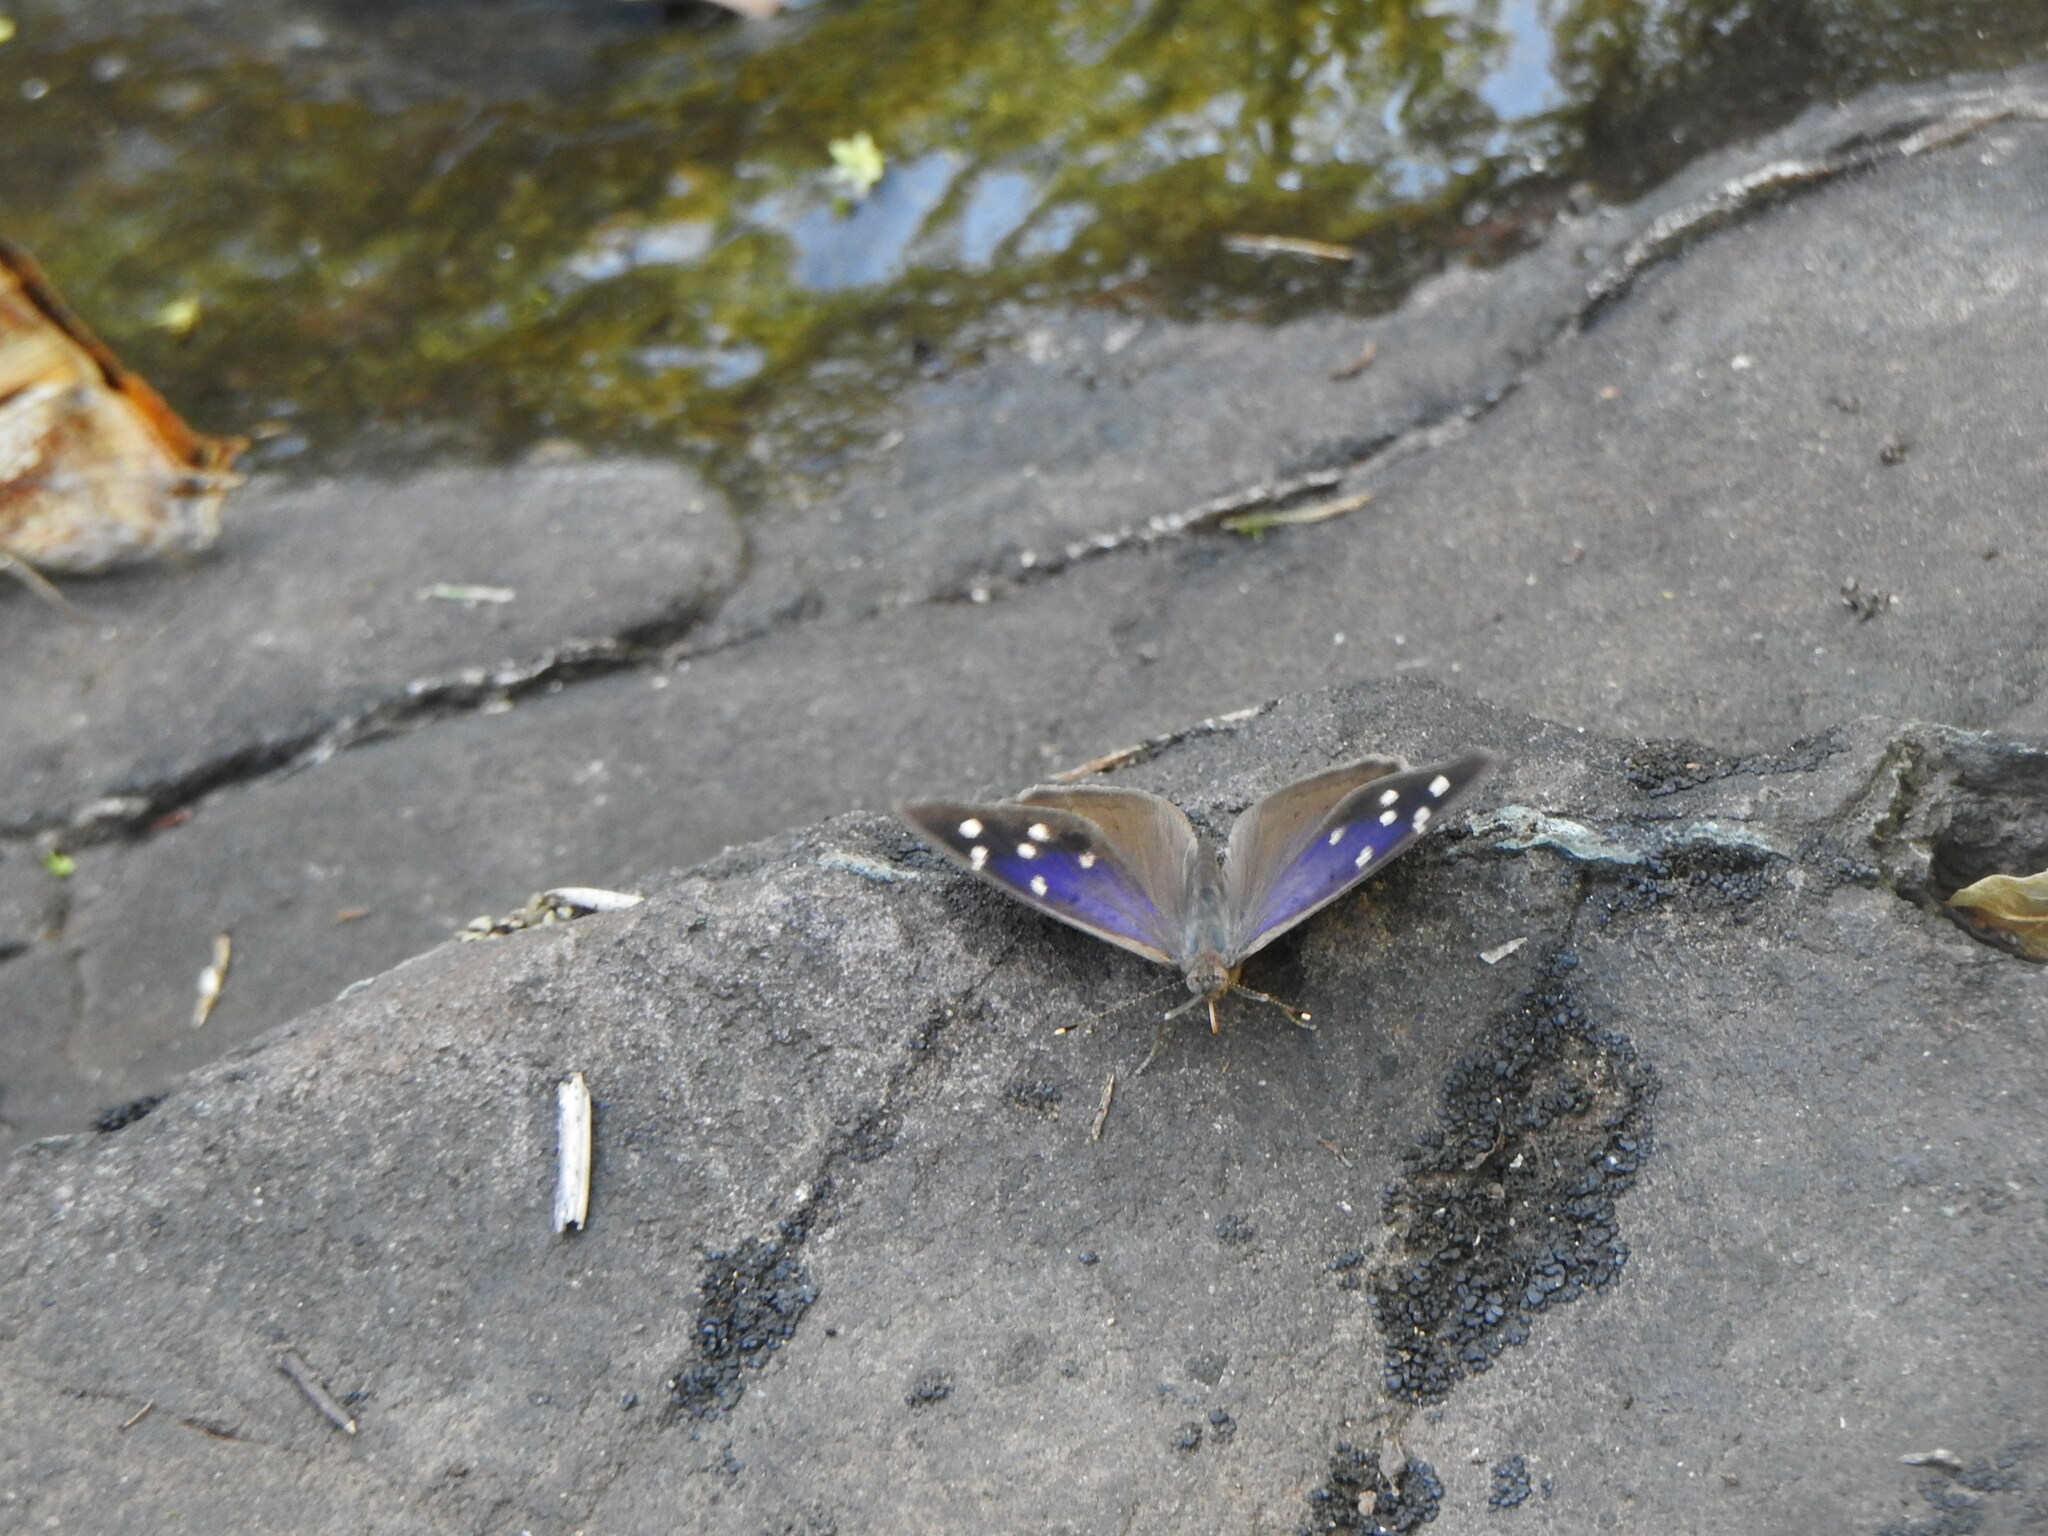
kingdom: Animalia
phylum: Arthropoda
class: Insecta
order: Lepidoptera
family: Nymphalidae
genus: Eunica
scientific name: Eunica tatila
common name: Florida purplewing
